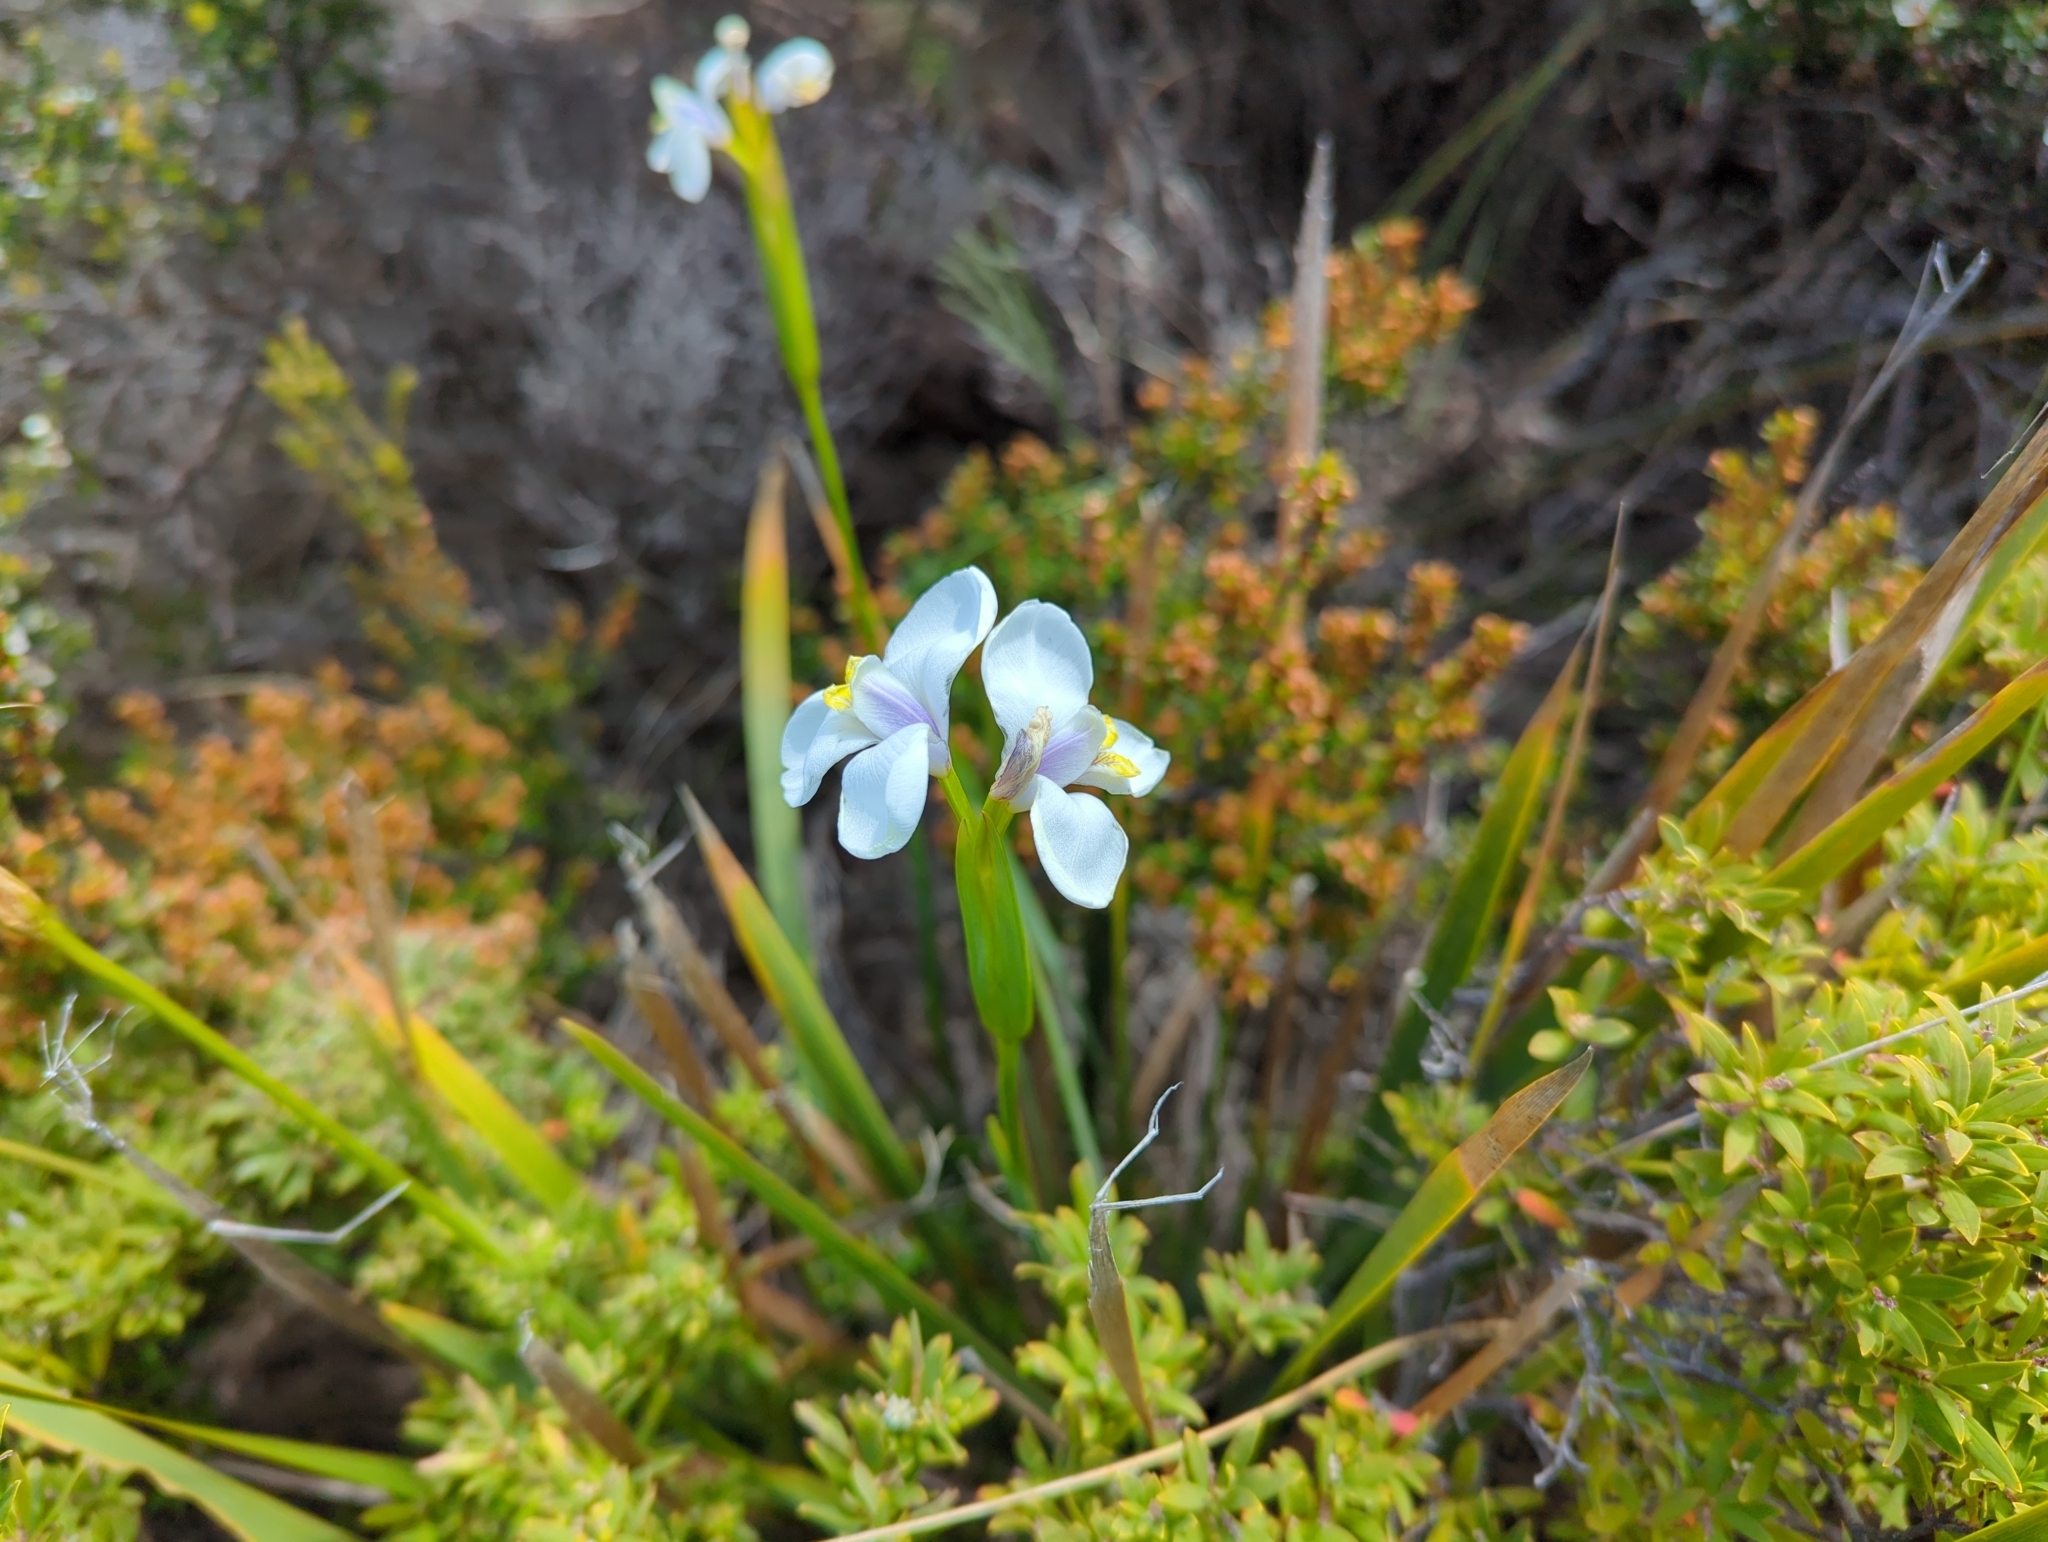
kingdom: Plantae
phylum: Tracheophyta
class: Liliopsida
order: Asparagales
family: Iridaceae
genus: Diplarrena
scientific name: Diplarrena moraea
